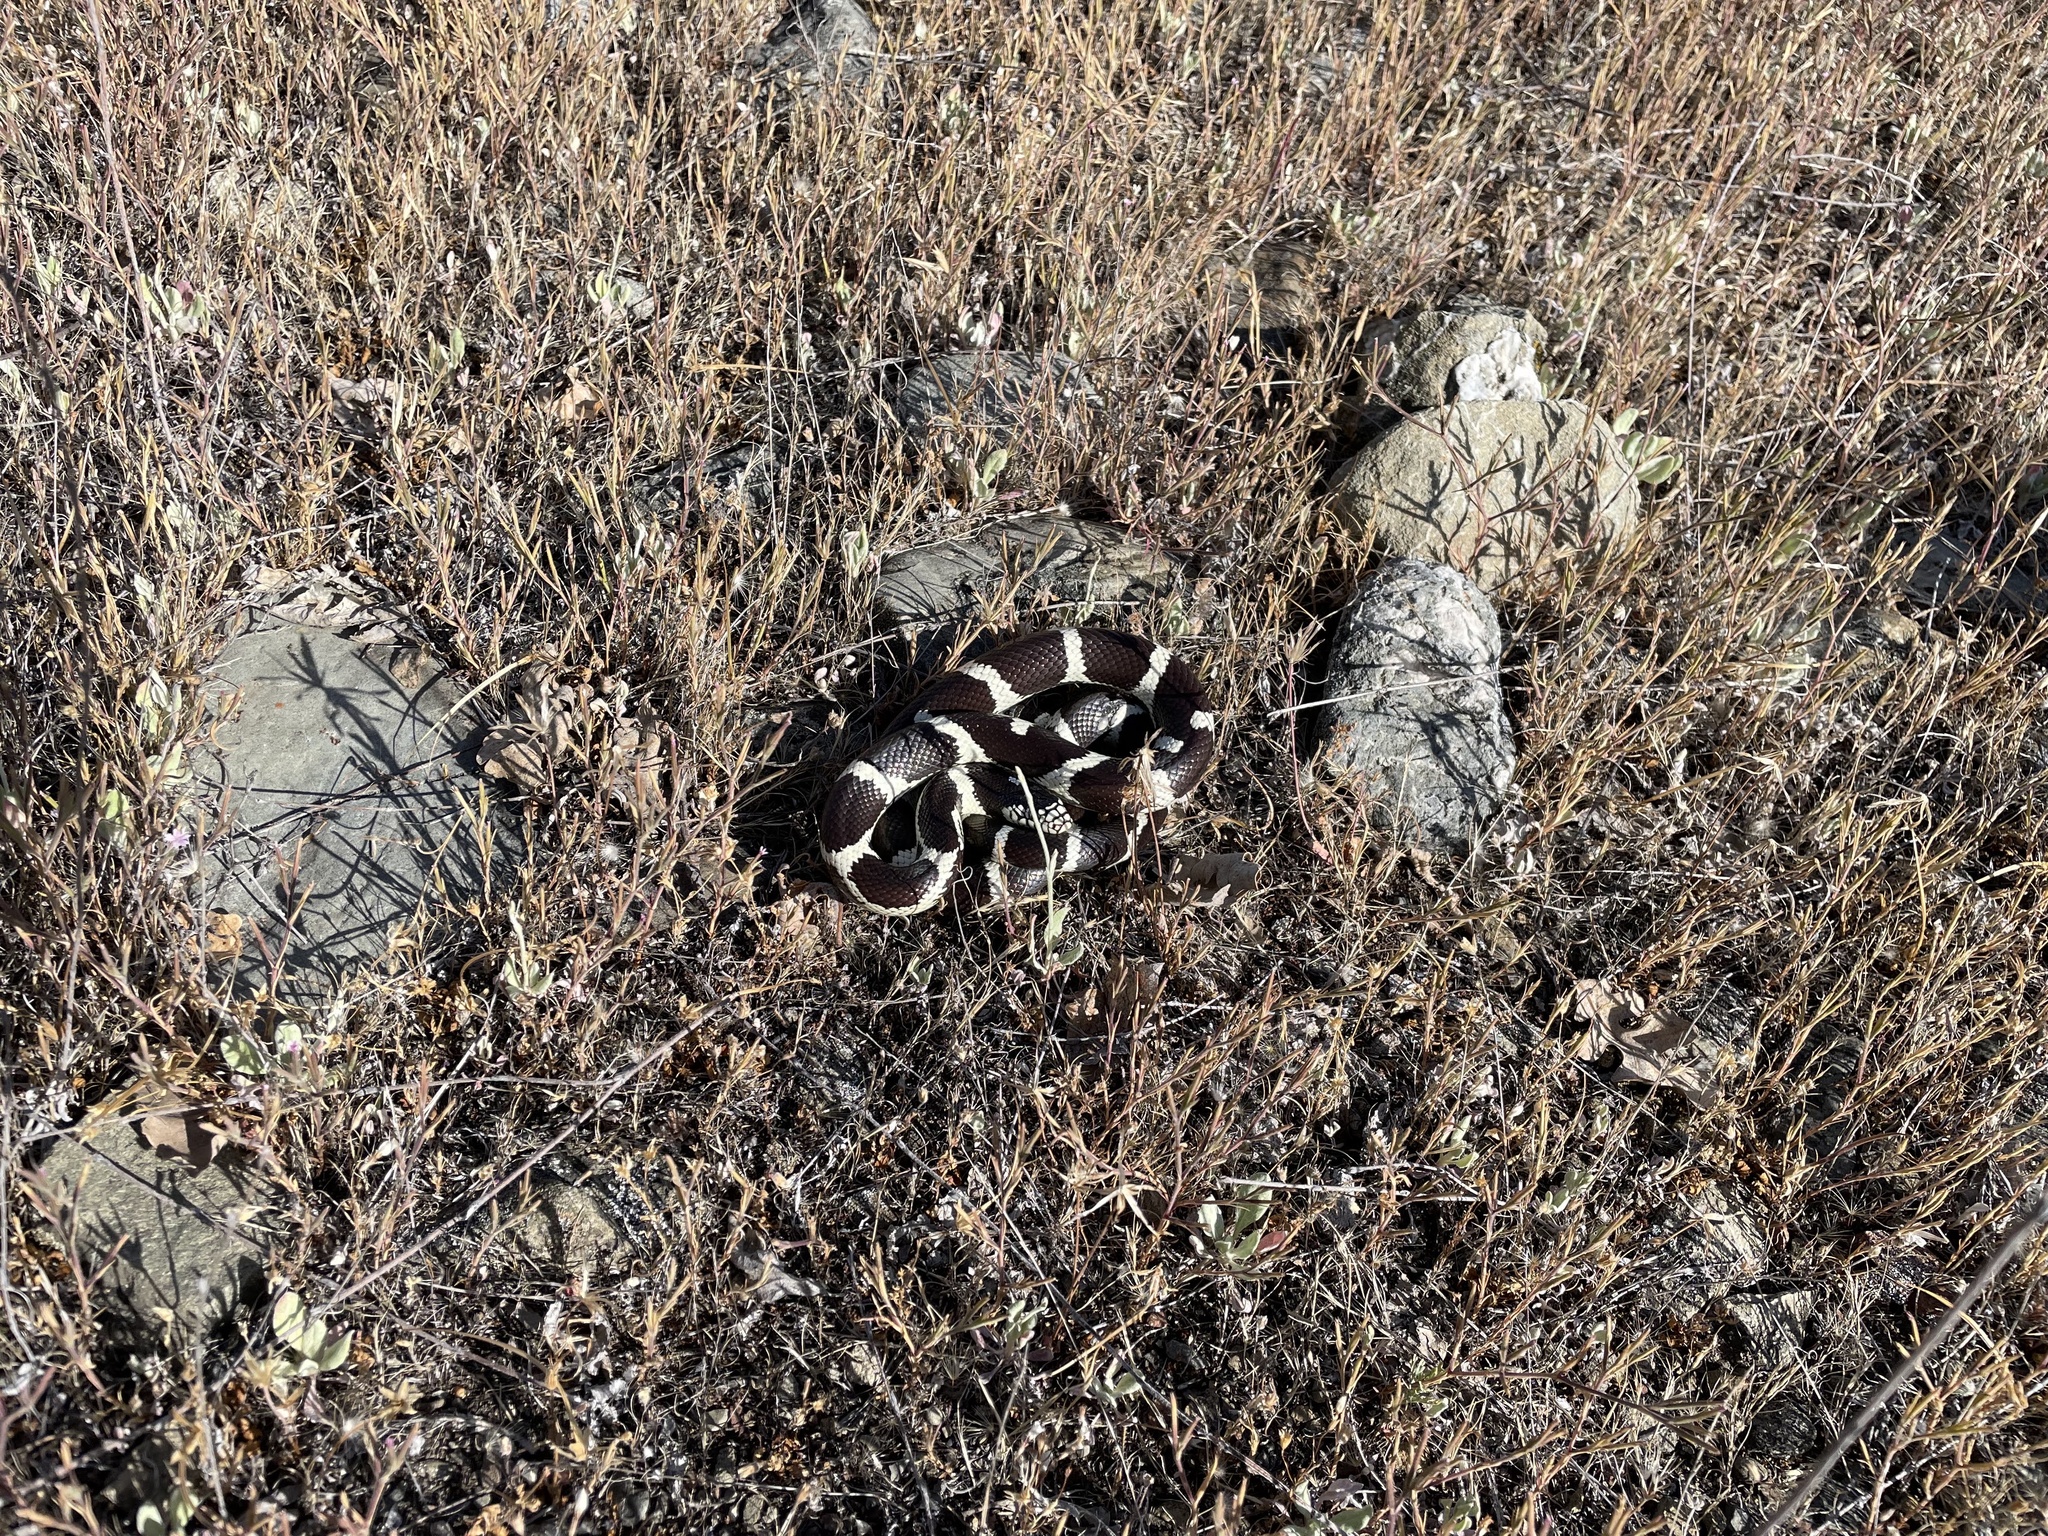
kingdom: Animalia
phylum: Chordata
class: Squamata
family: Colubridae
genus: Lampropeltis
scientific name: Lampropeltis californiae
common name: California kingsnake
